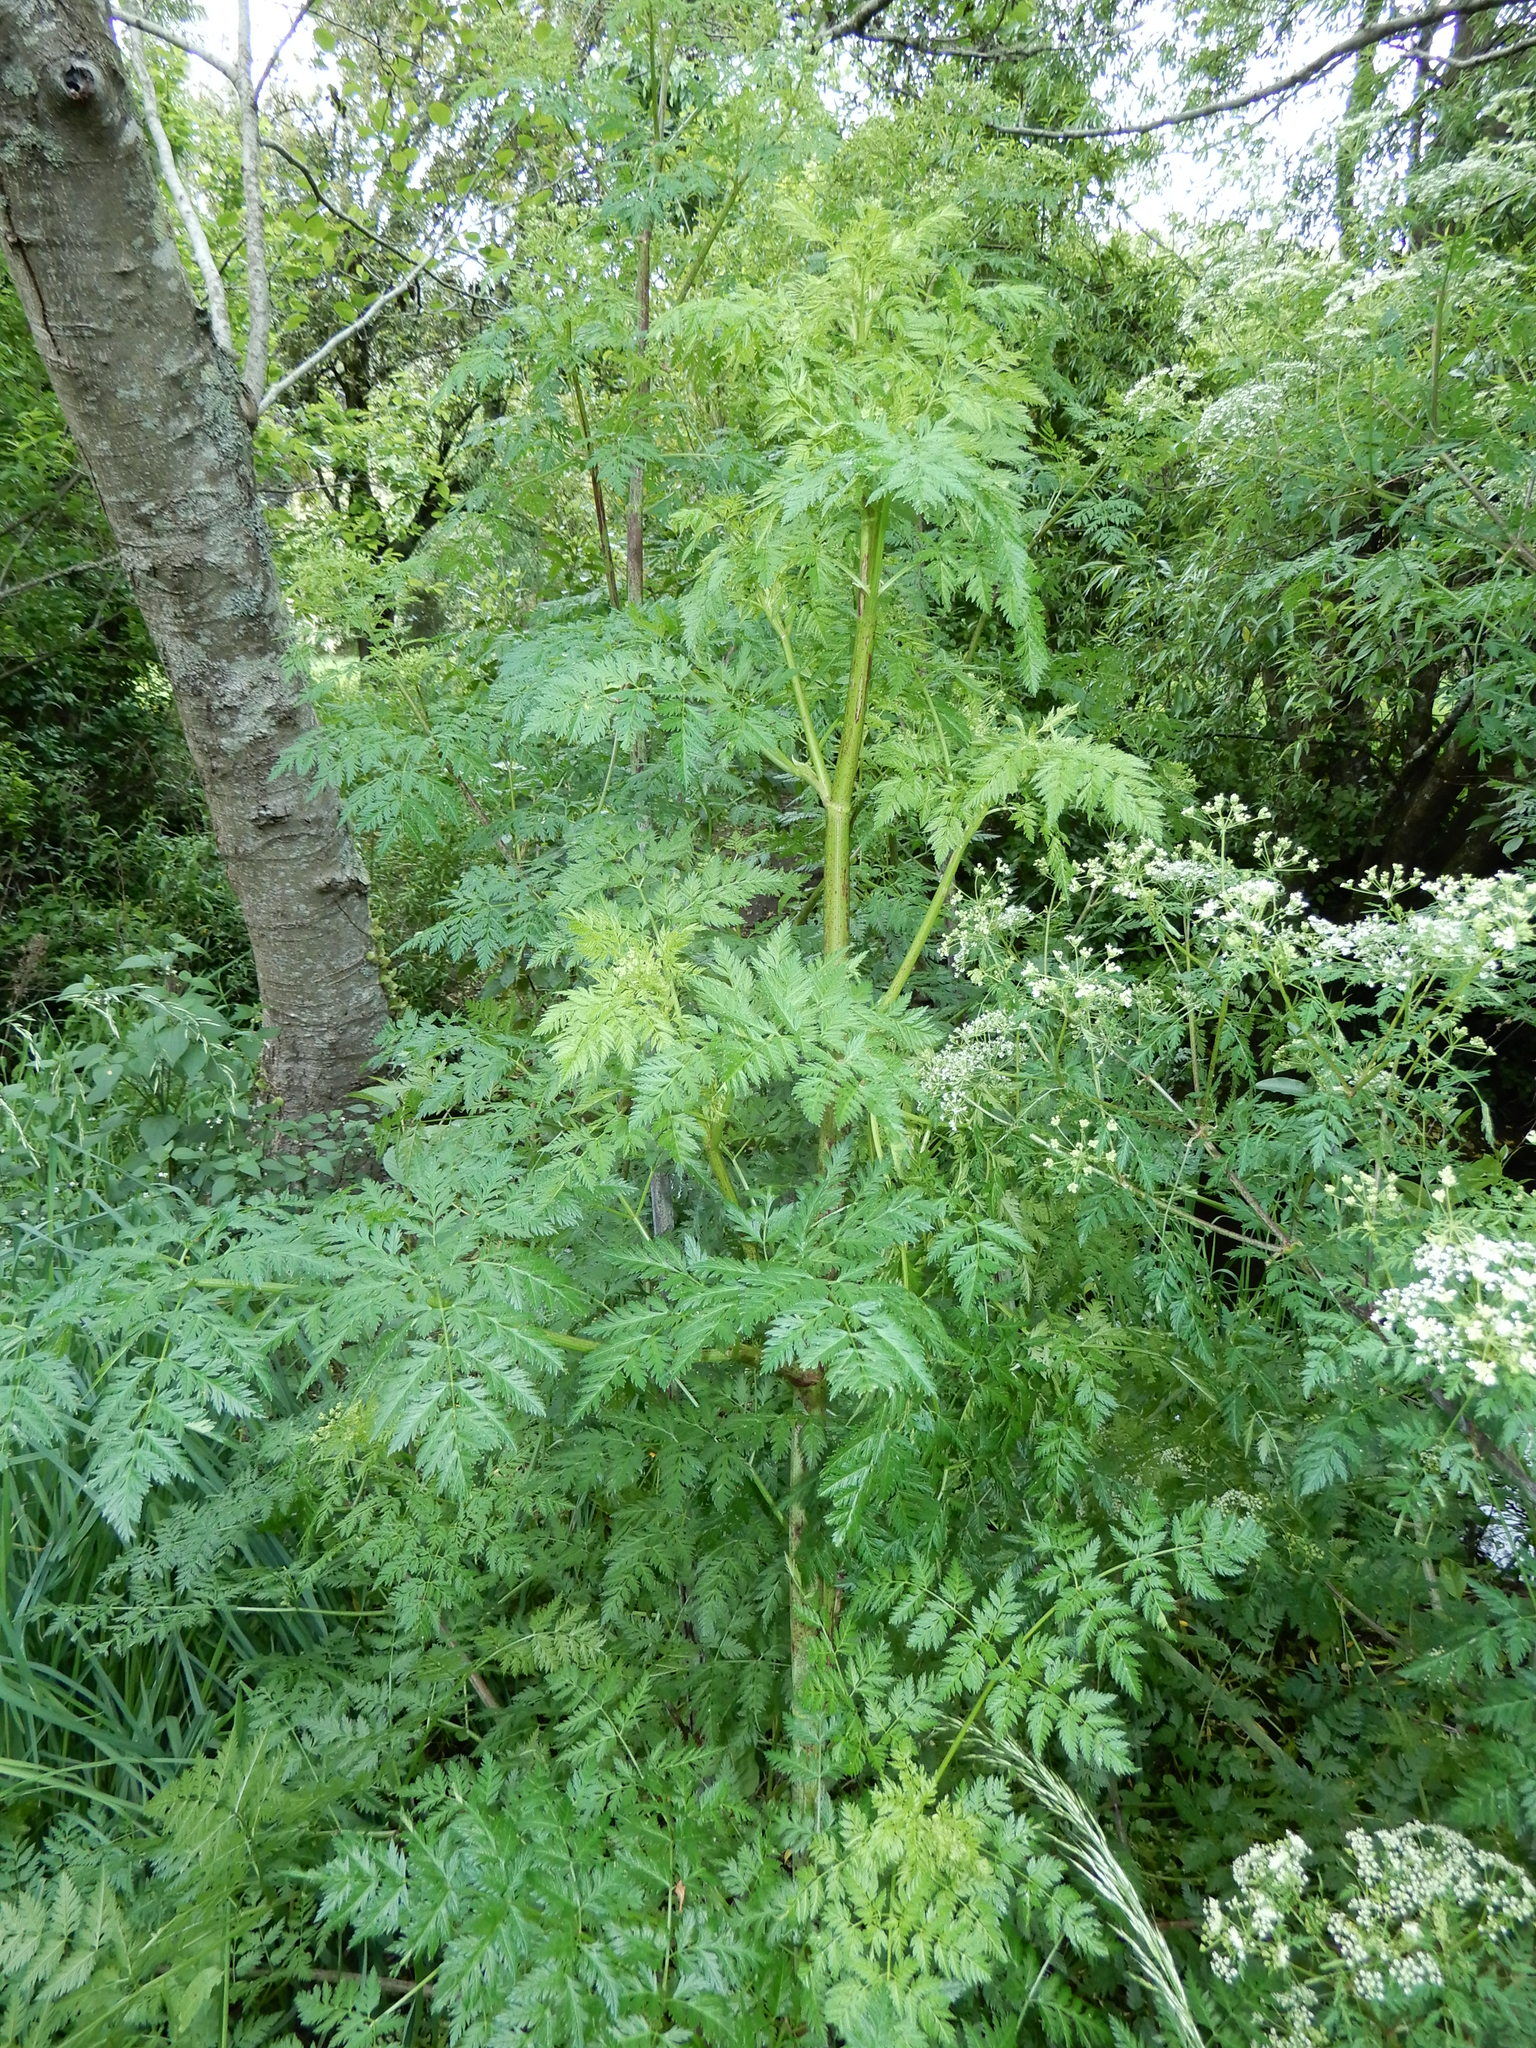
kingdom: Plantae
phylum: Tracheophyta
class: Magnoliopsida
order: Apiales
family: Apiaceae
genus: Conium
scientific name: Conium maculatum
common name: Hemlock
